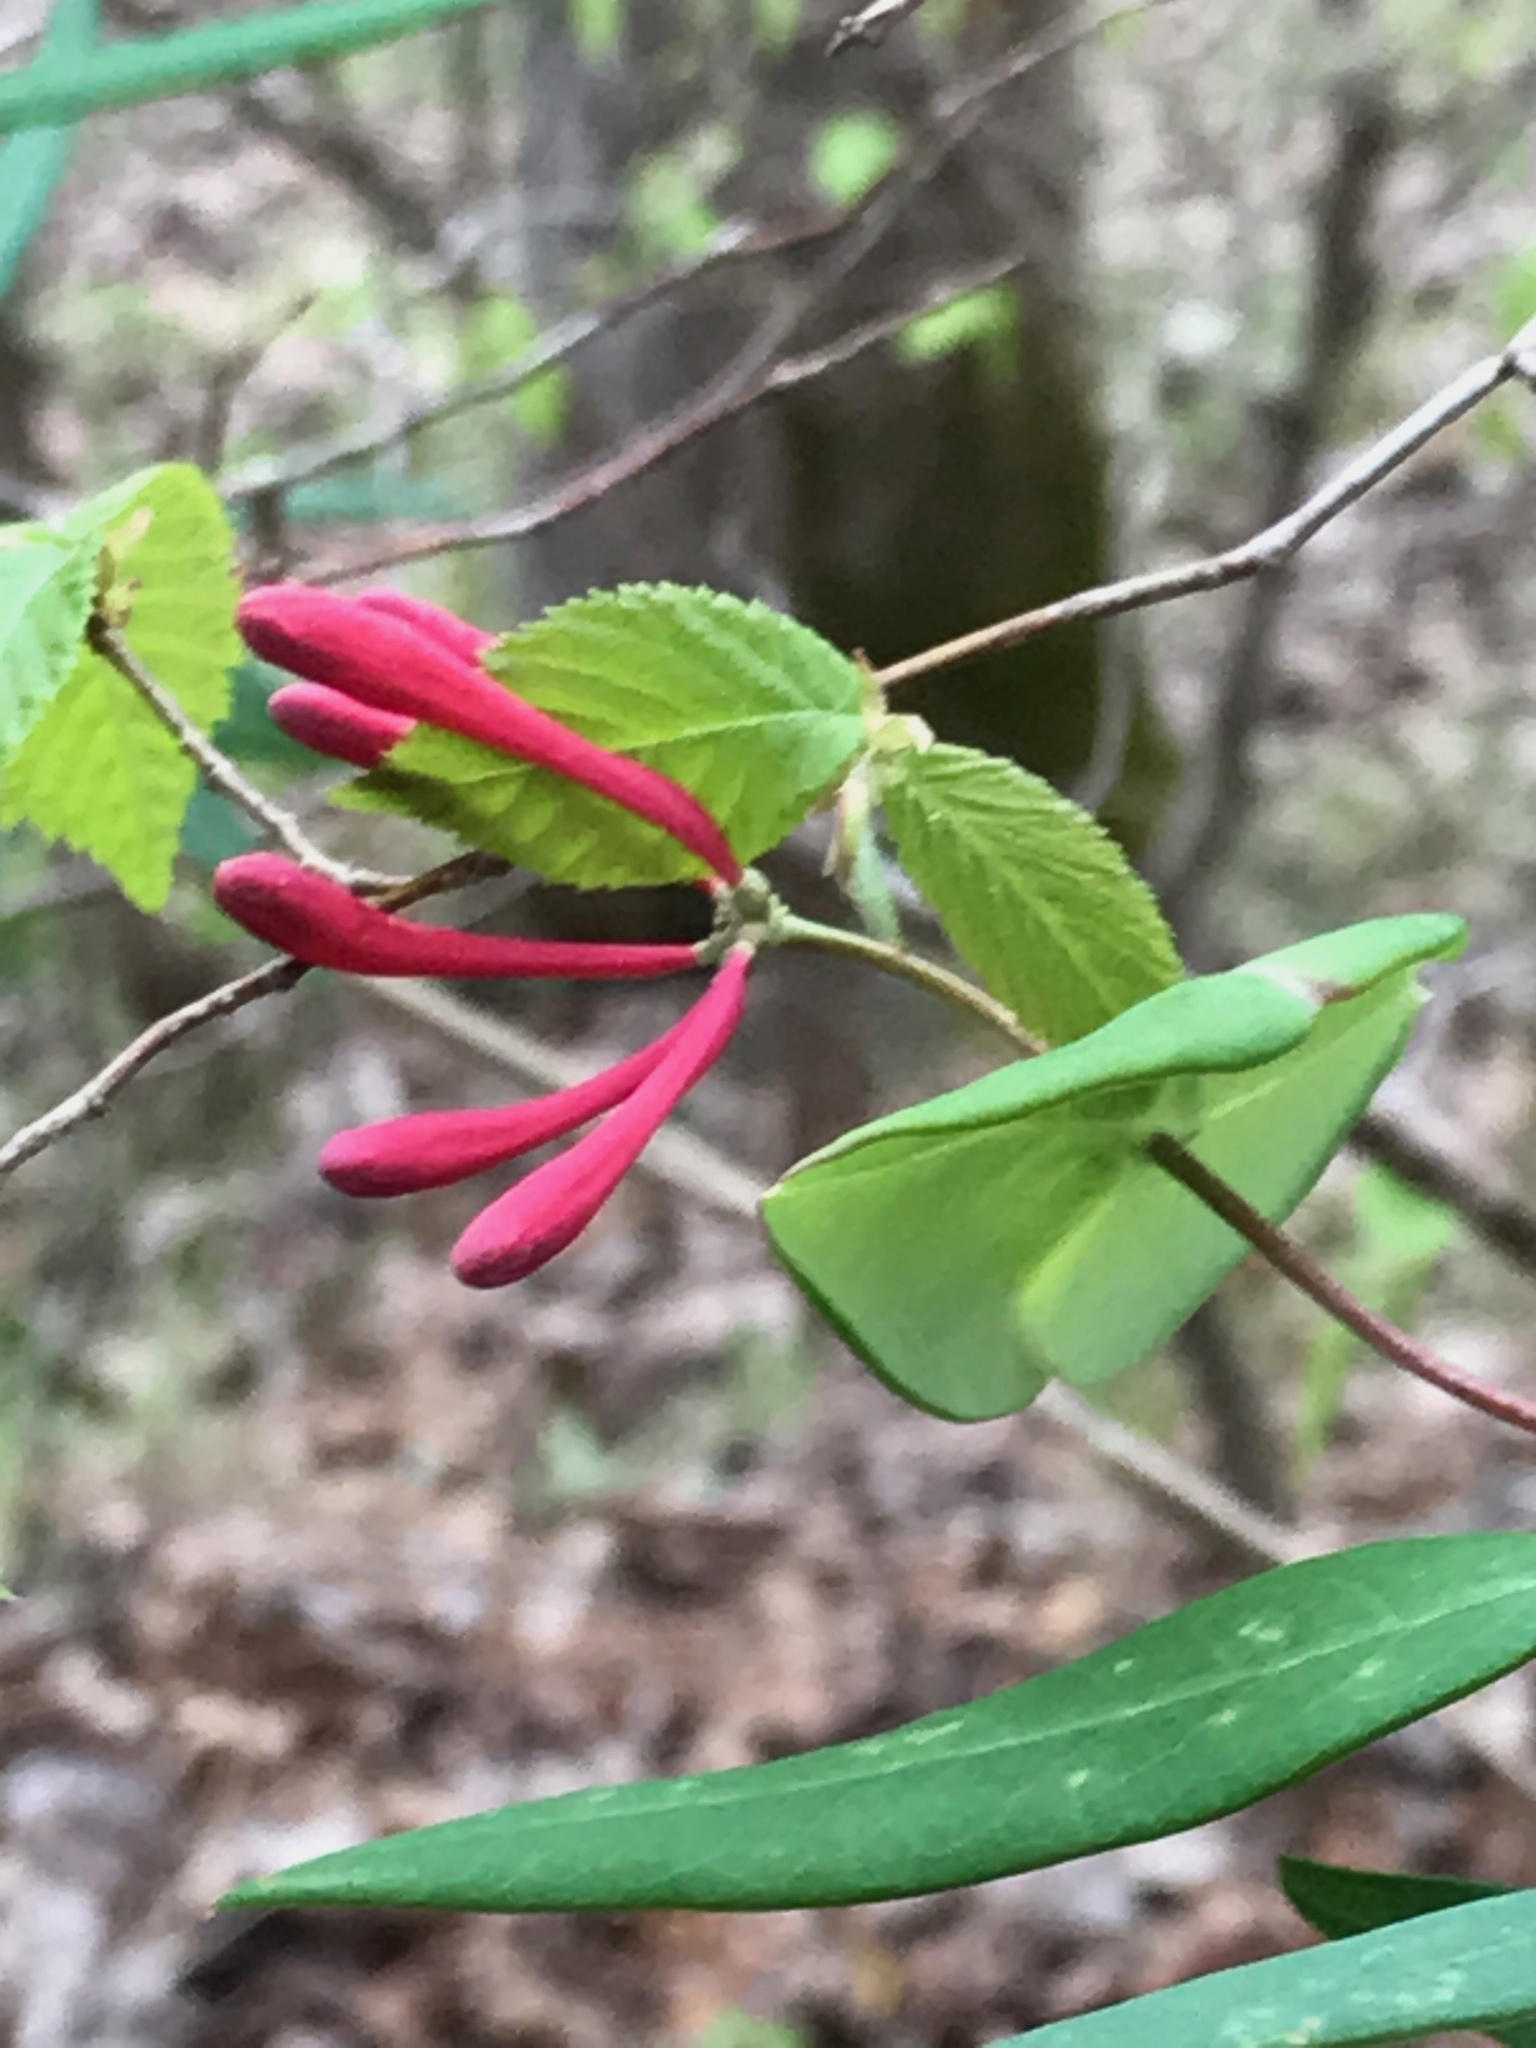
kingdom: Plantae
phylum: Tracheophyta
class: Magnoliopsida
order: Dipsacales
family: Caprifoliaceae
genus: Lonicera
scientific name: Lonicera sempervirens
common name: Coral honeysuckle
